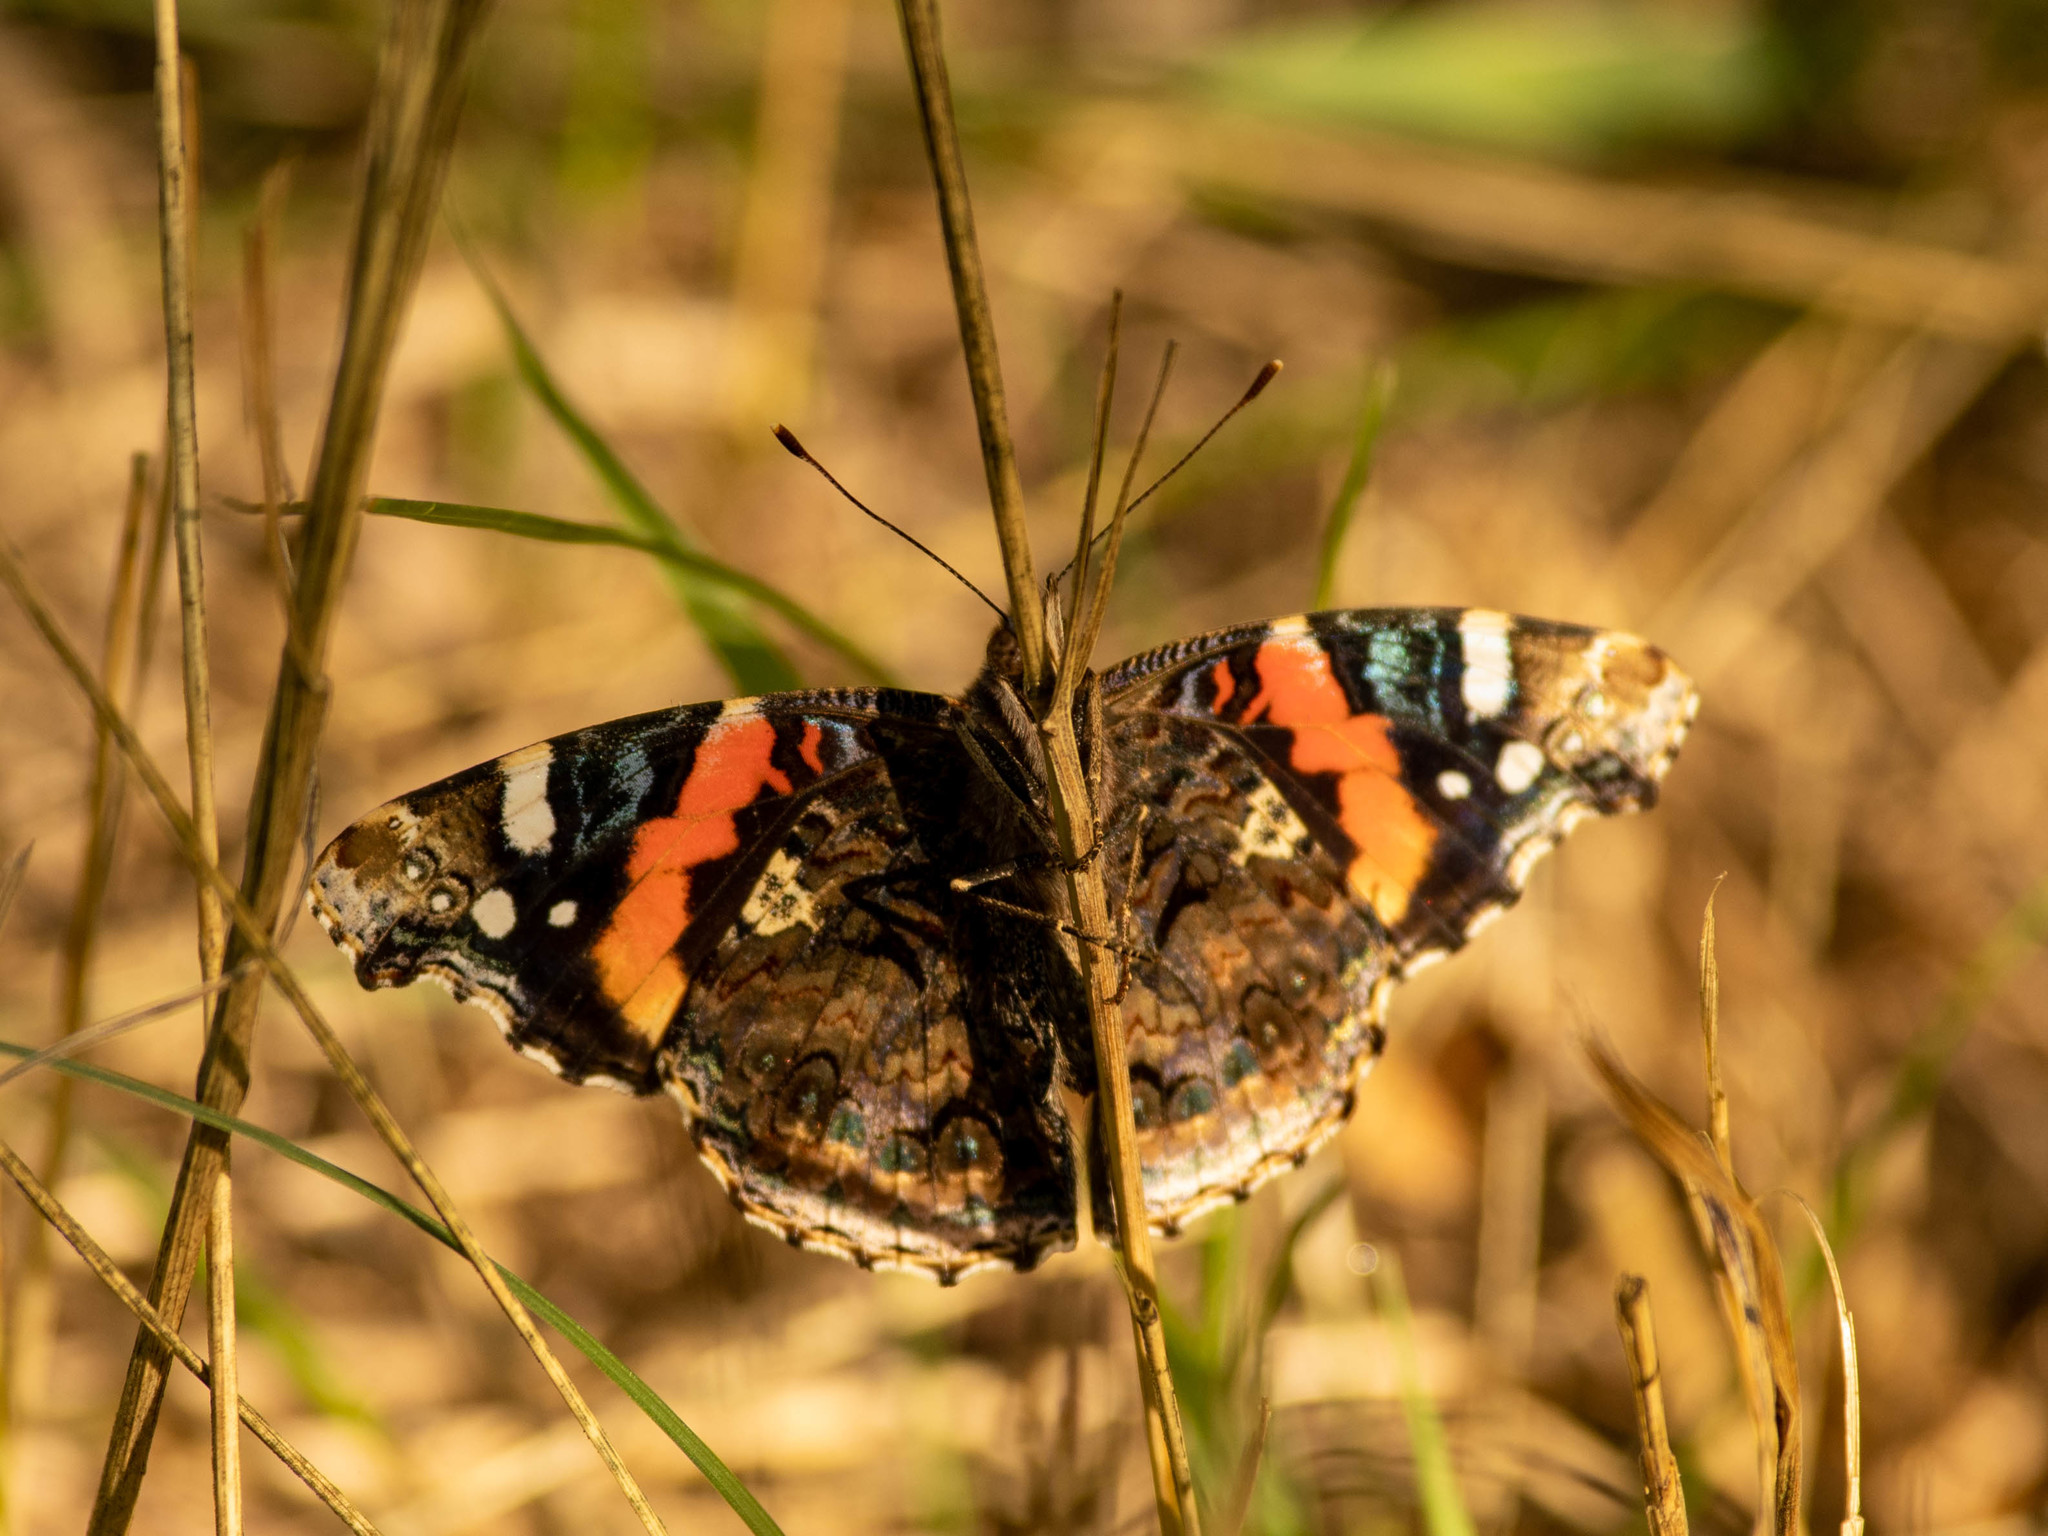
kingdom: Animalia
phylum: Arthropoda
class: Insecta
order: Lepidoptera
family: Nymphalidae
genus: Vanessa
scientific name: Vanessa atalanta
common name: Red admiral
